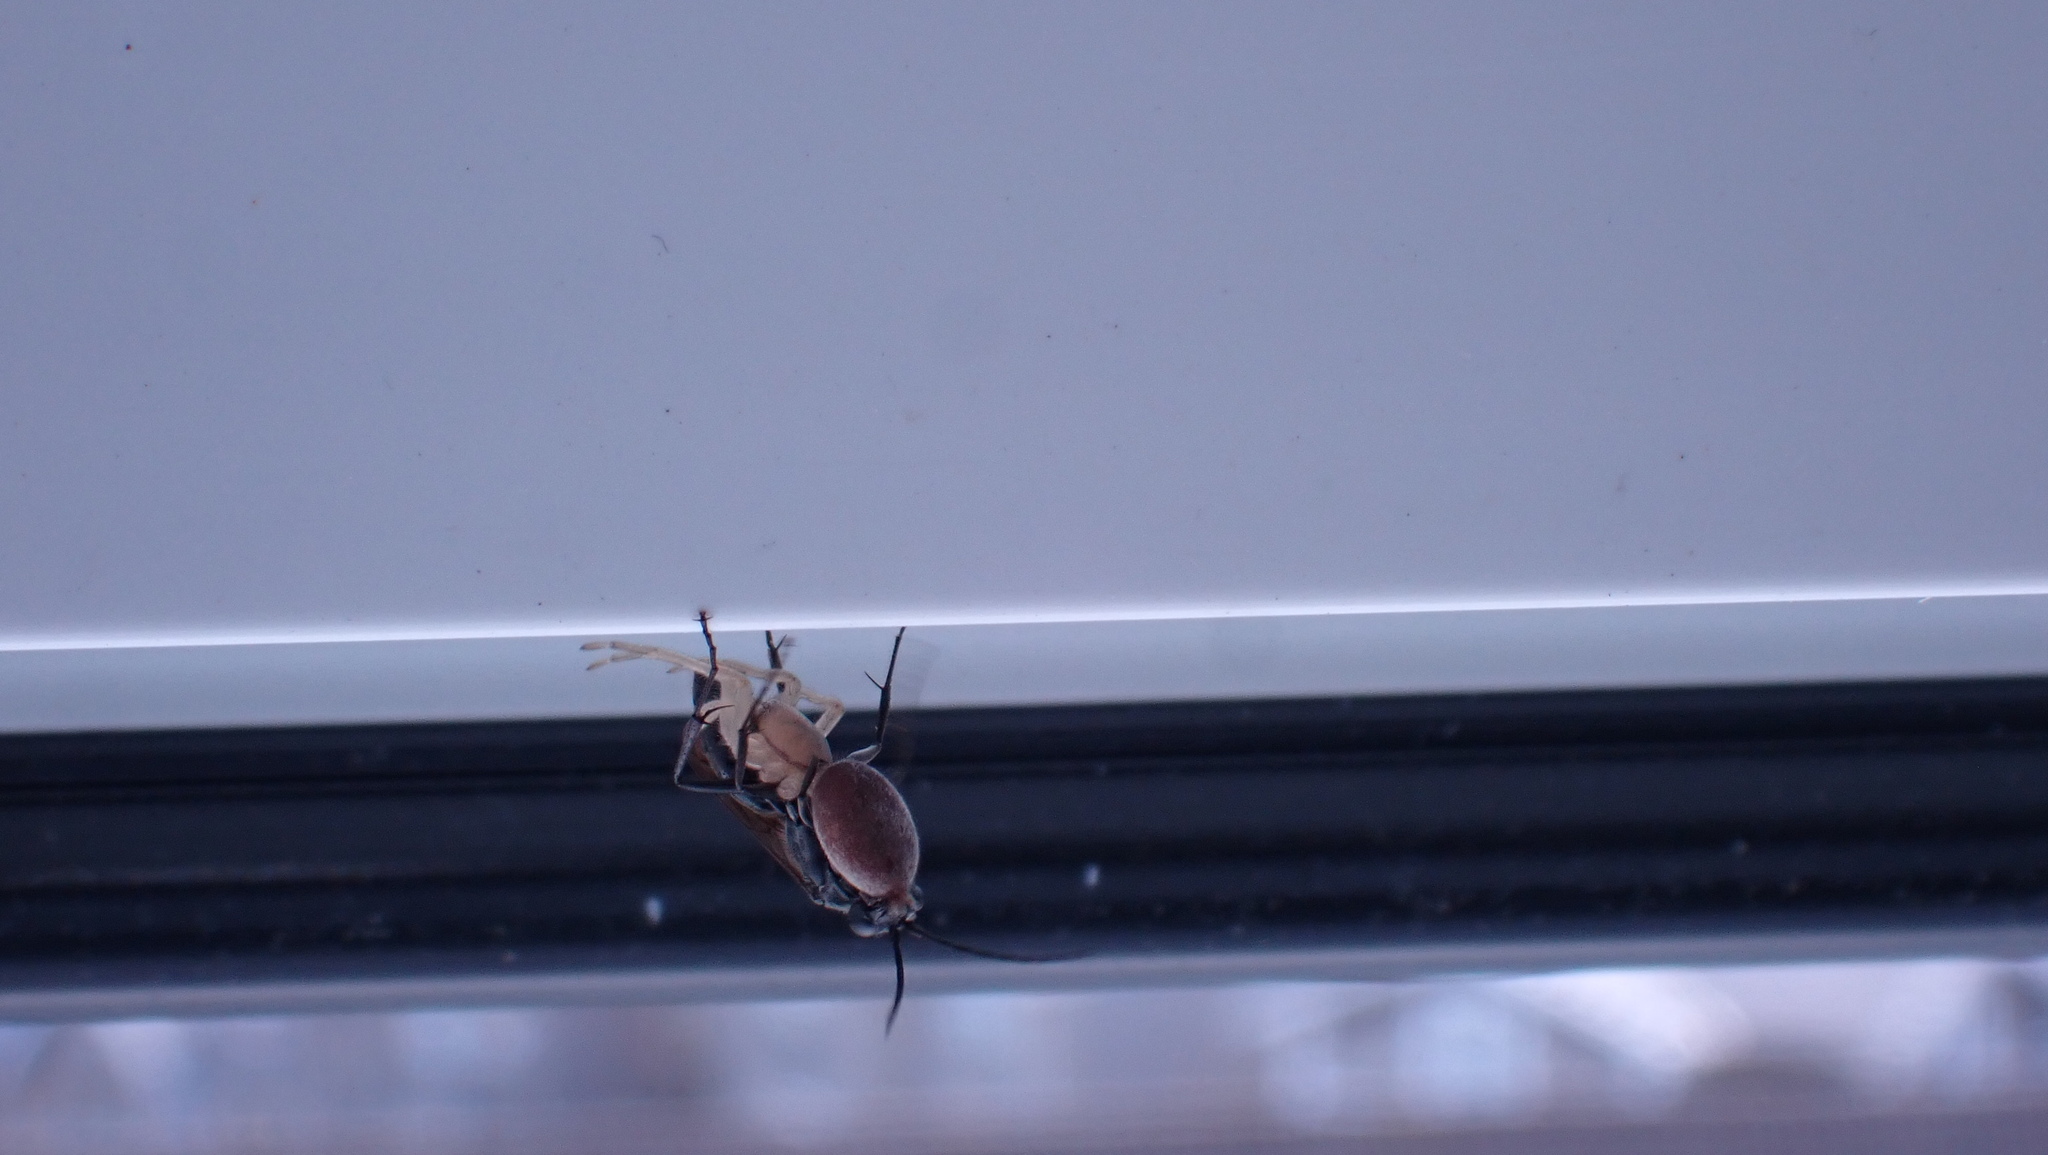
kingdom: Animalia
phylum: Arthropoda
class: Insecta
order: Hymenoptera
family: Pompilidae
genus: Auplopus
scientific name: Auplopus carbonarius
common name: Spider wasp
